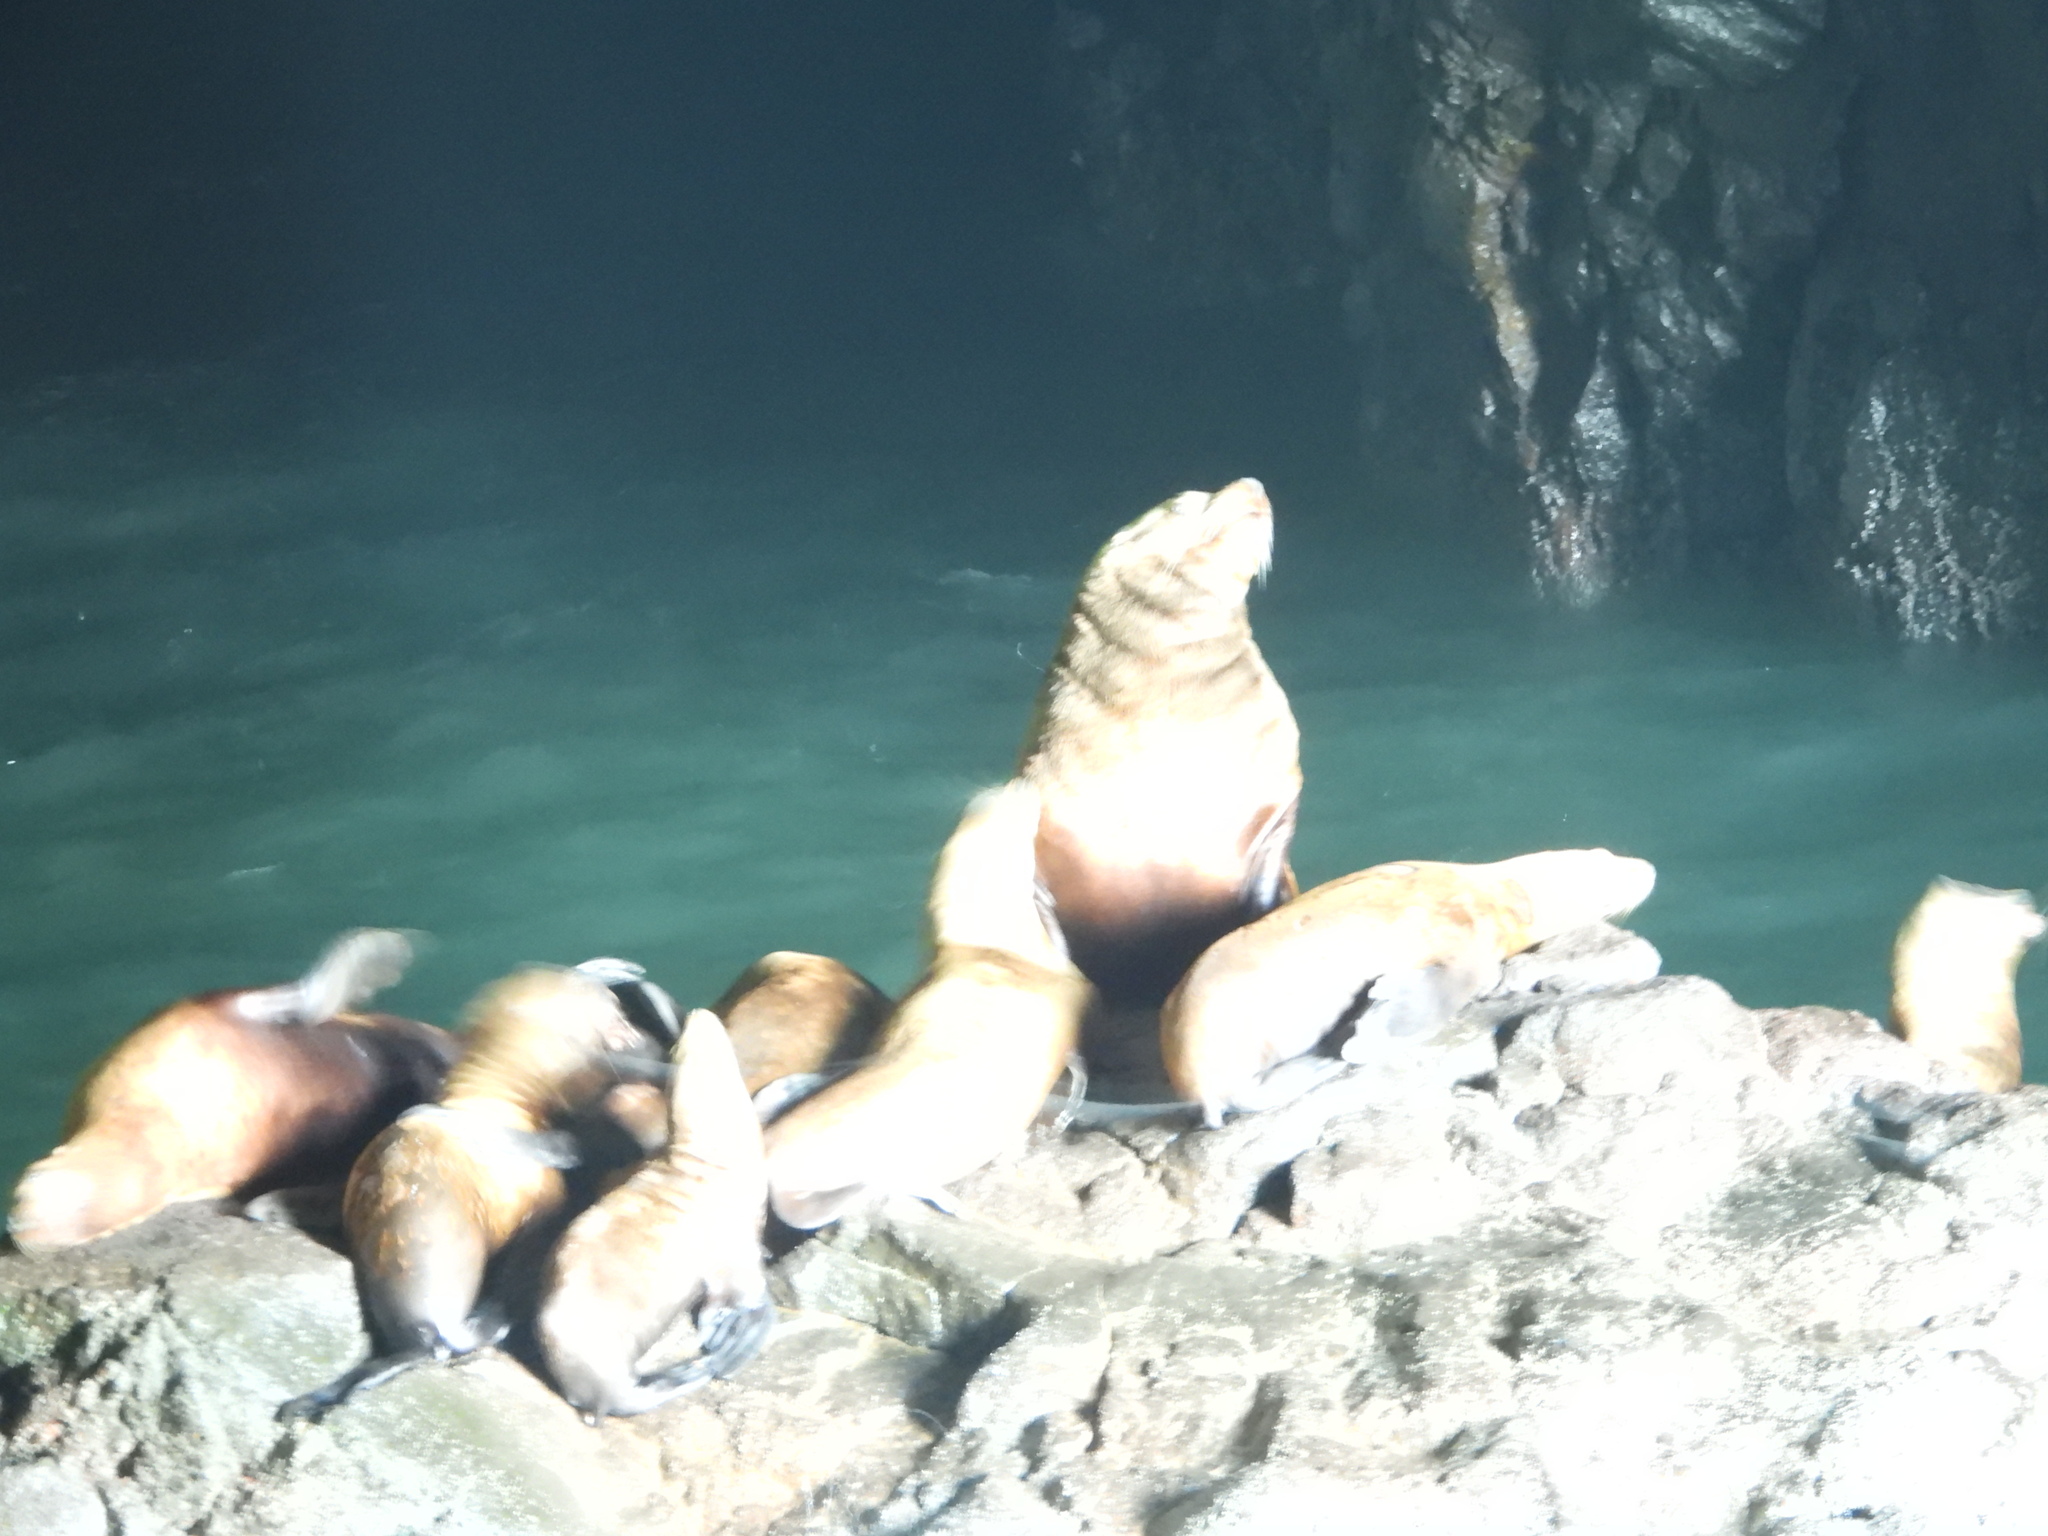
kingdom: Animalia
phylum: Chordata
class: Mammalia
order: Carnivora
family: Otariidae
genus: Eumetopias
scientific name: Eumetopias jubatus
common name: Steller sea lion
